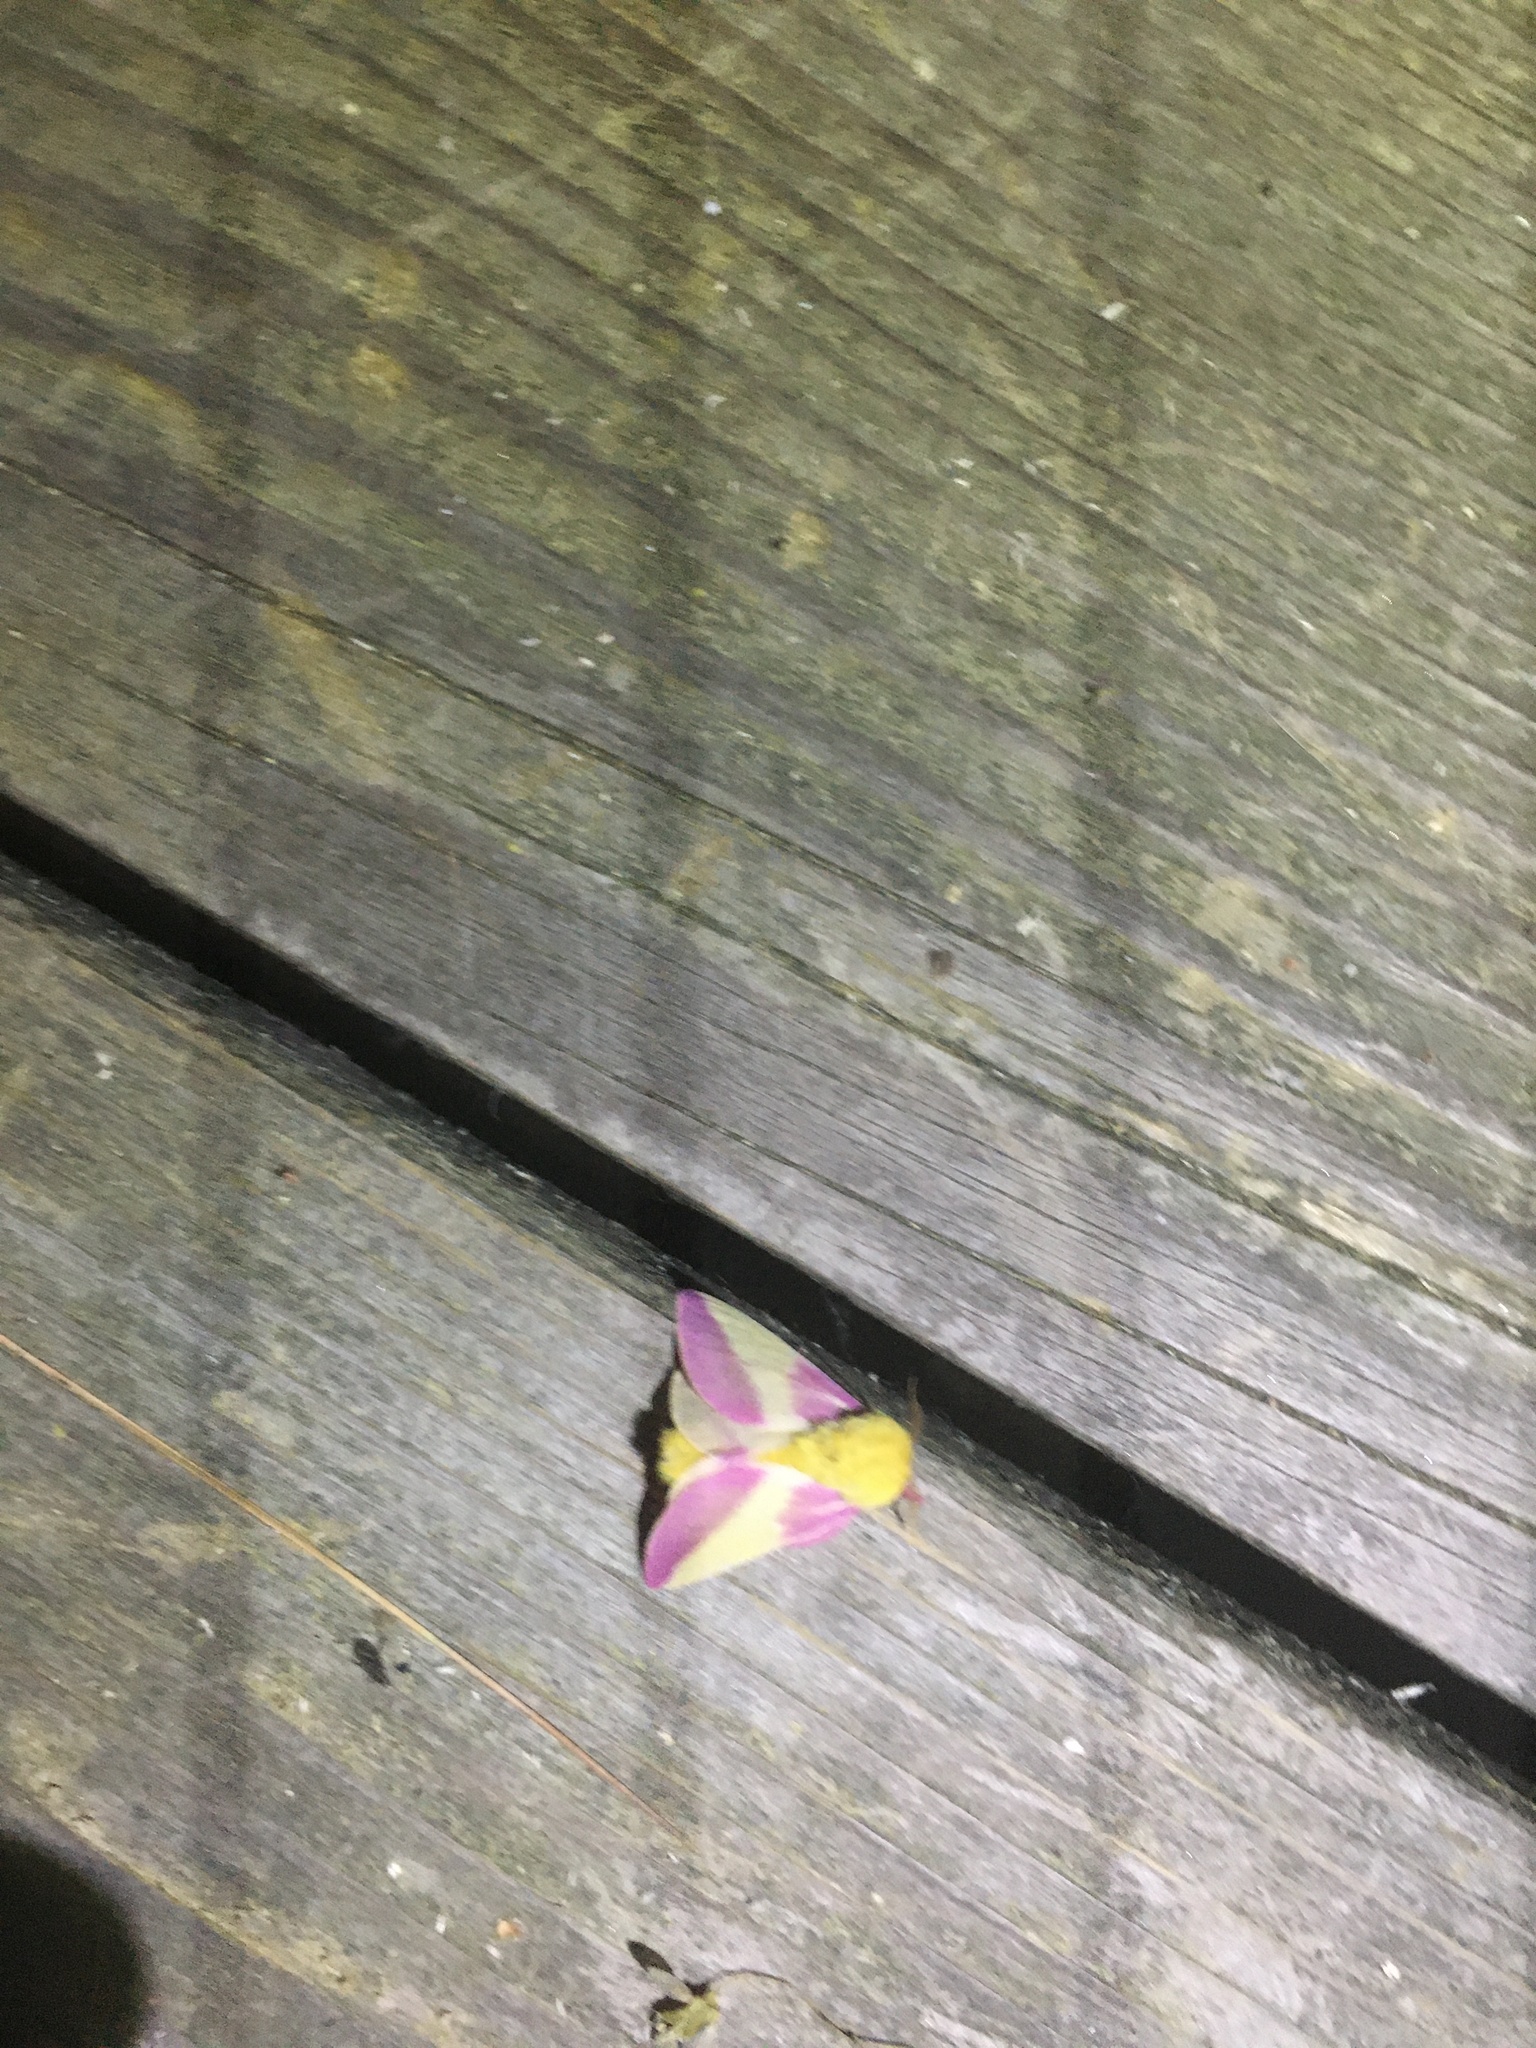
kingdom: Animalia
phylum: Arthropoda
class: Insecta
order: Lepidoptera
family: Saturniidae
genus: Dryocampa
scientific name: Dryocampa rubicunda
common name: Rosy maple moth
